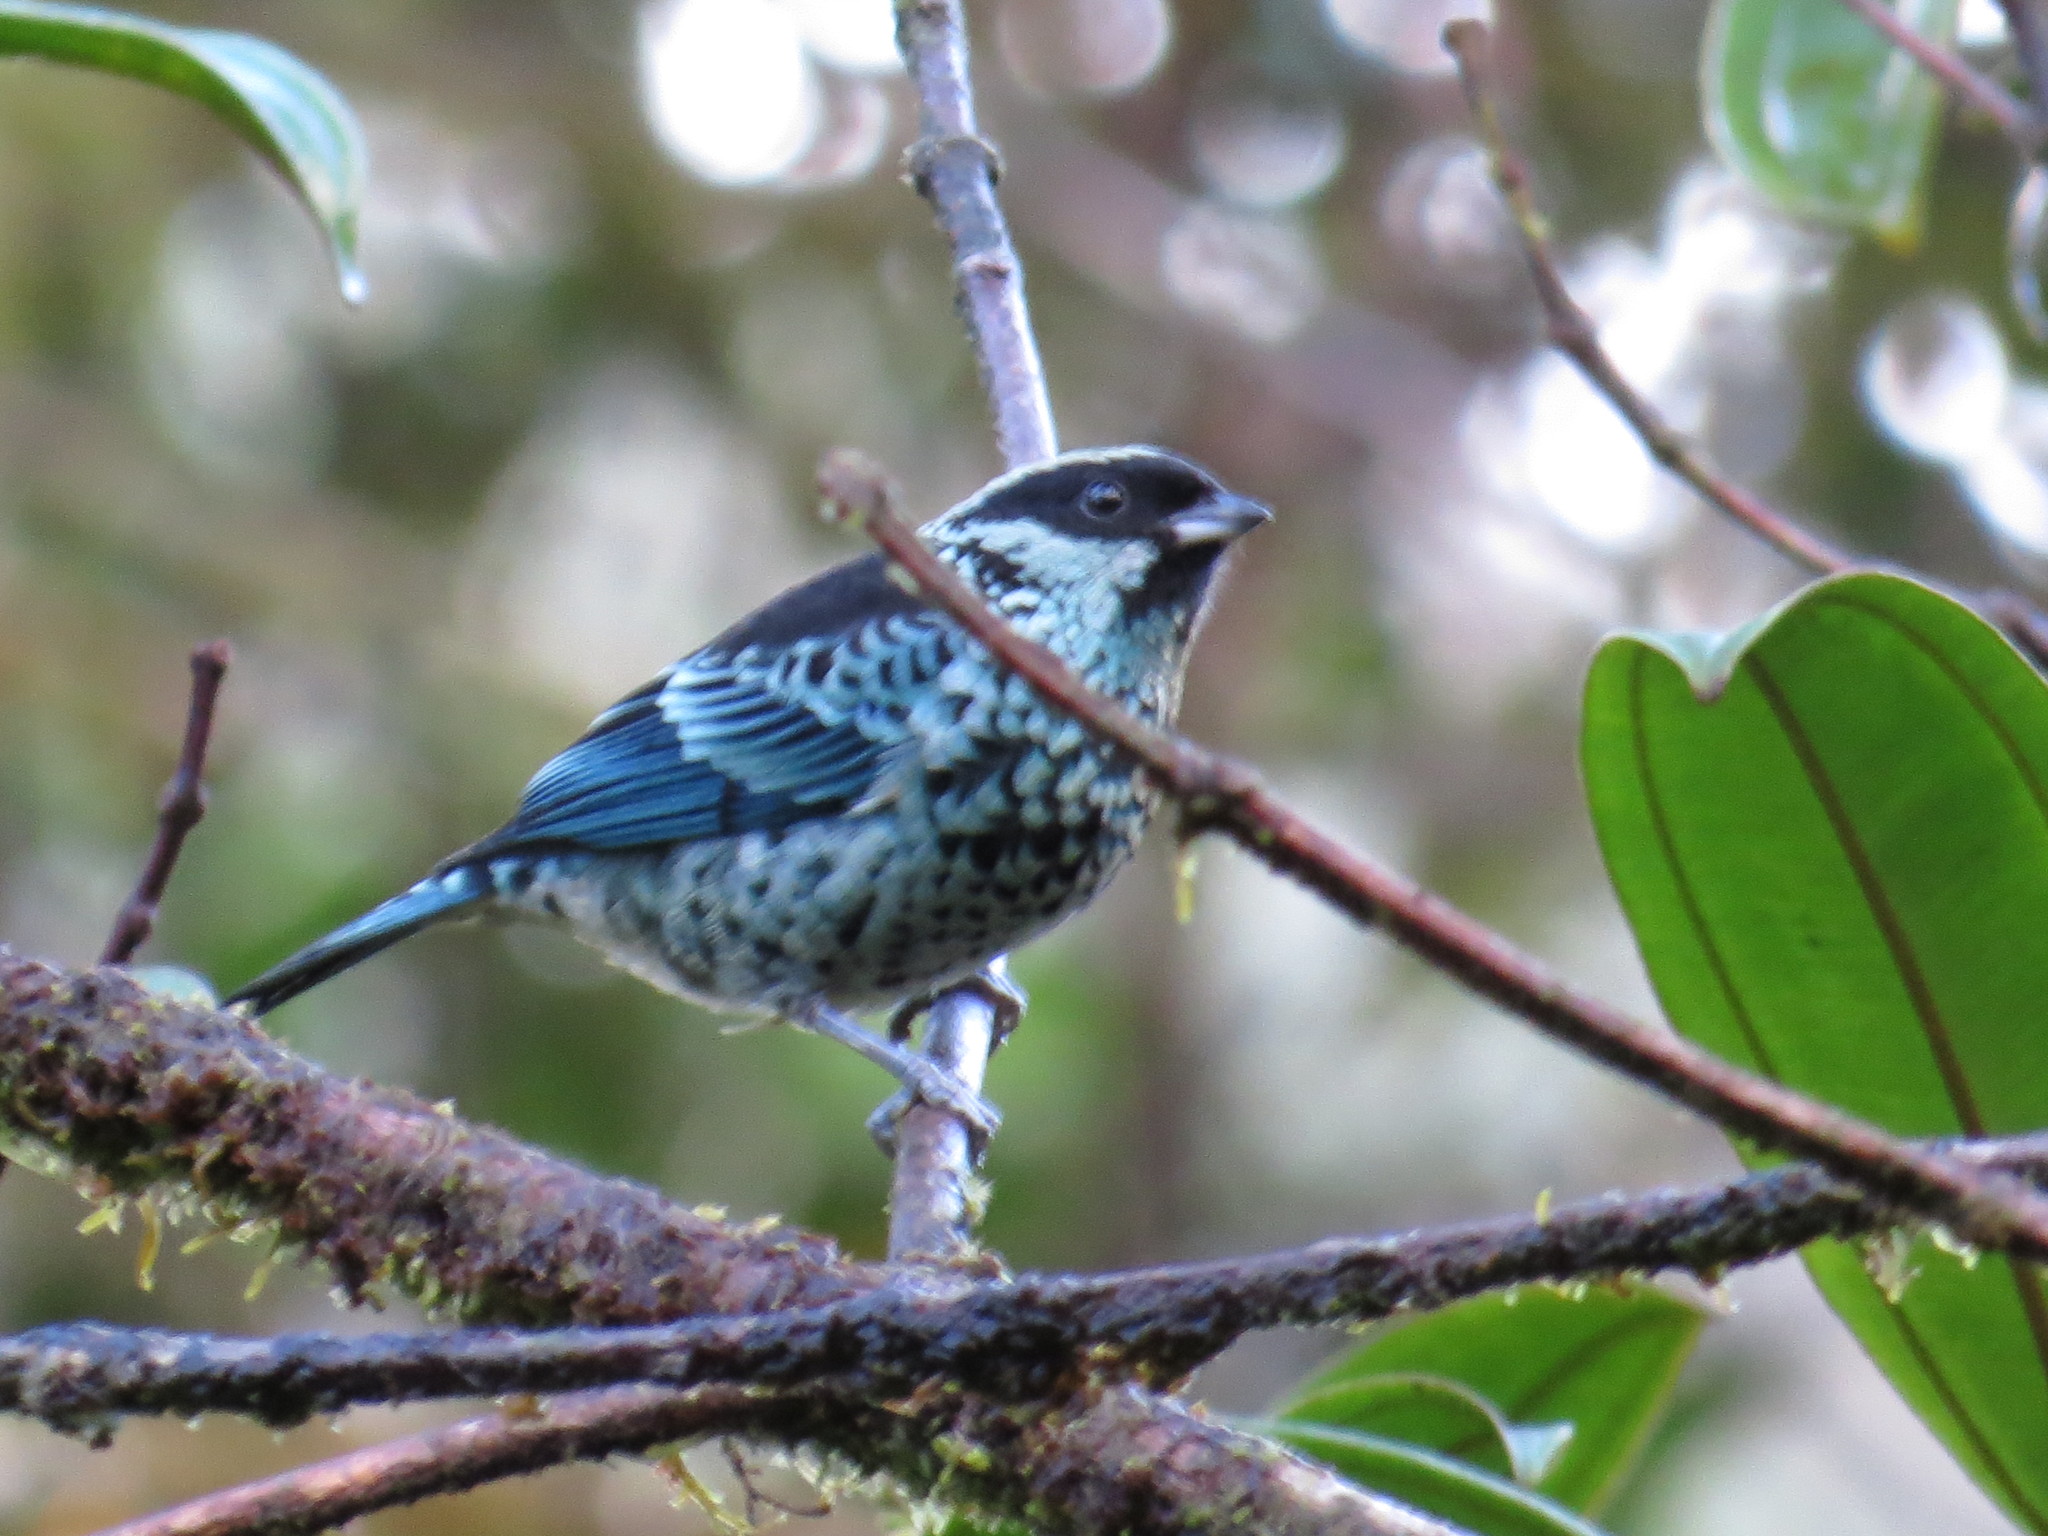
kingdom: Animalia
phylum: Chordata
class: Aves
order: Passeriformes
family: Thraupidae
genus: Tangara
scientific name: Tangara nigroviridis
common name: Beryl-spangled tanager
